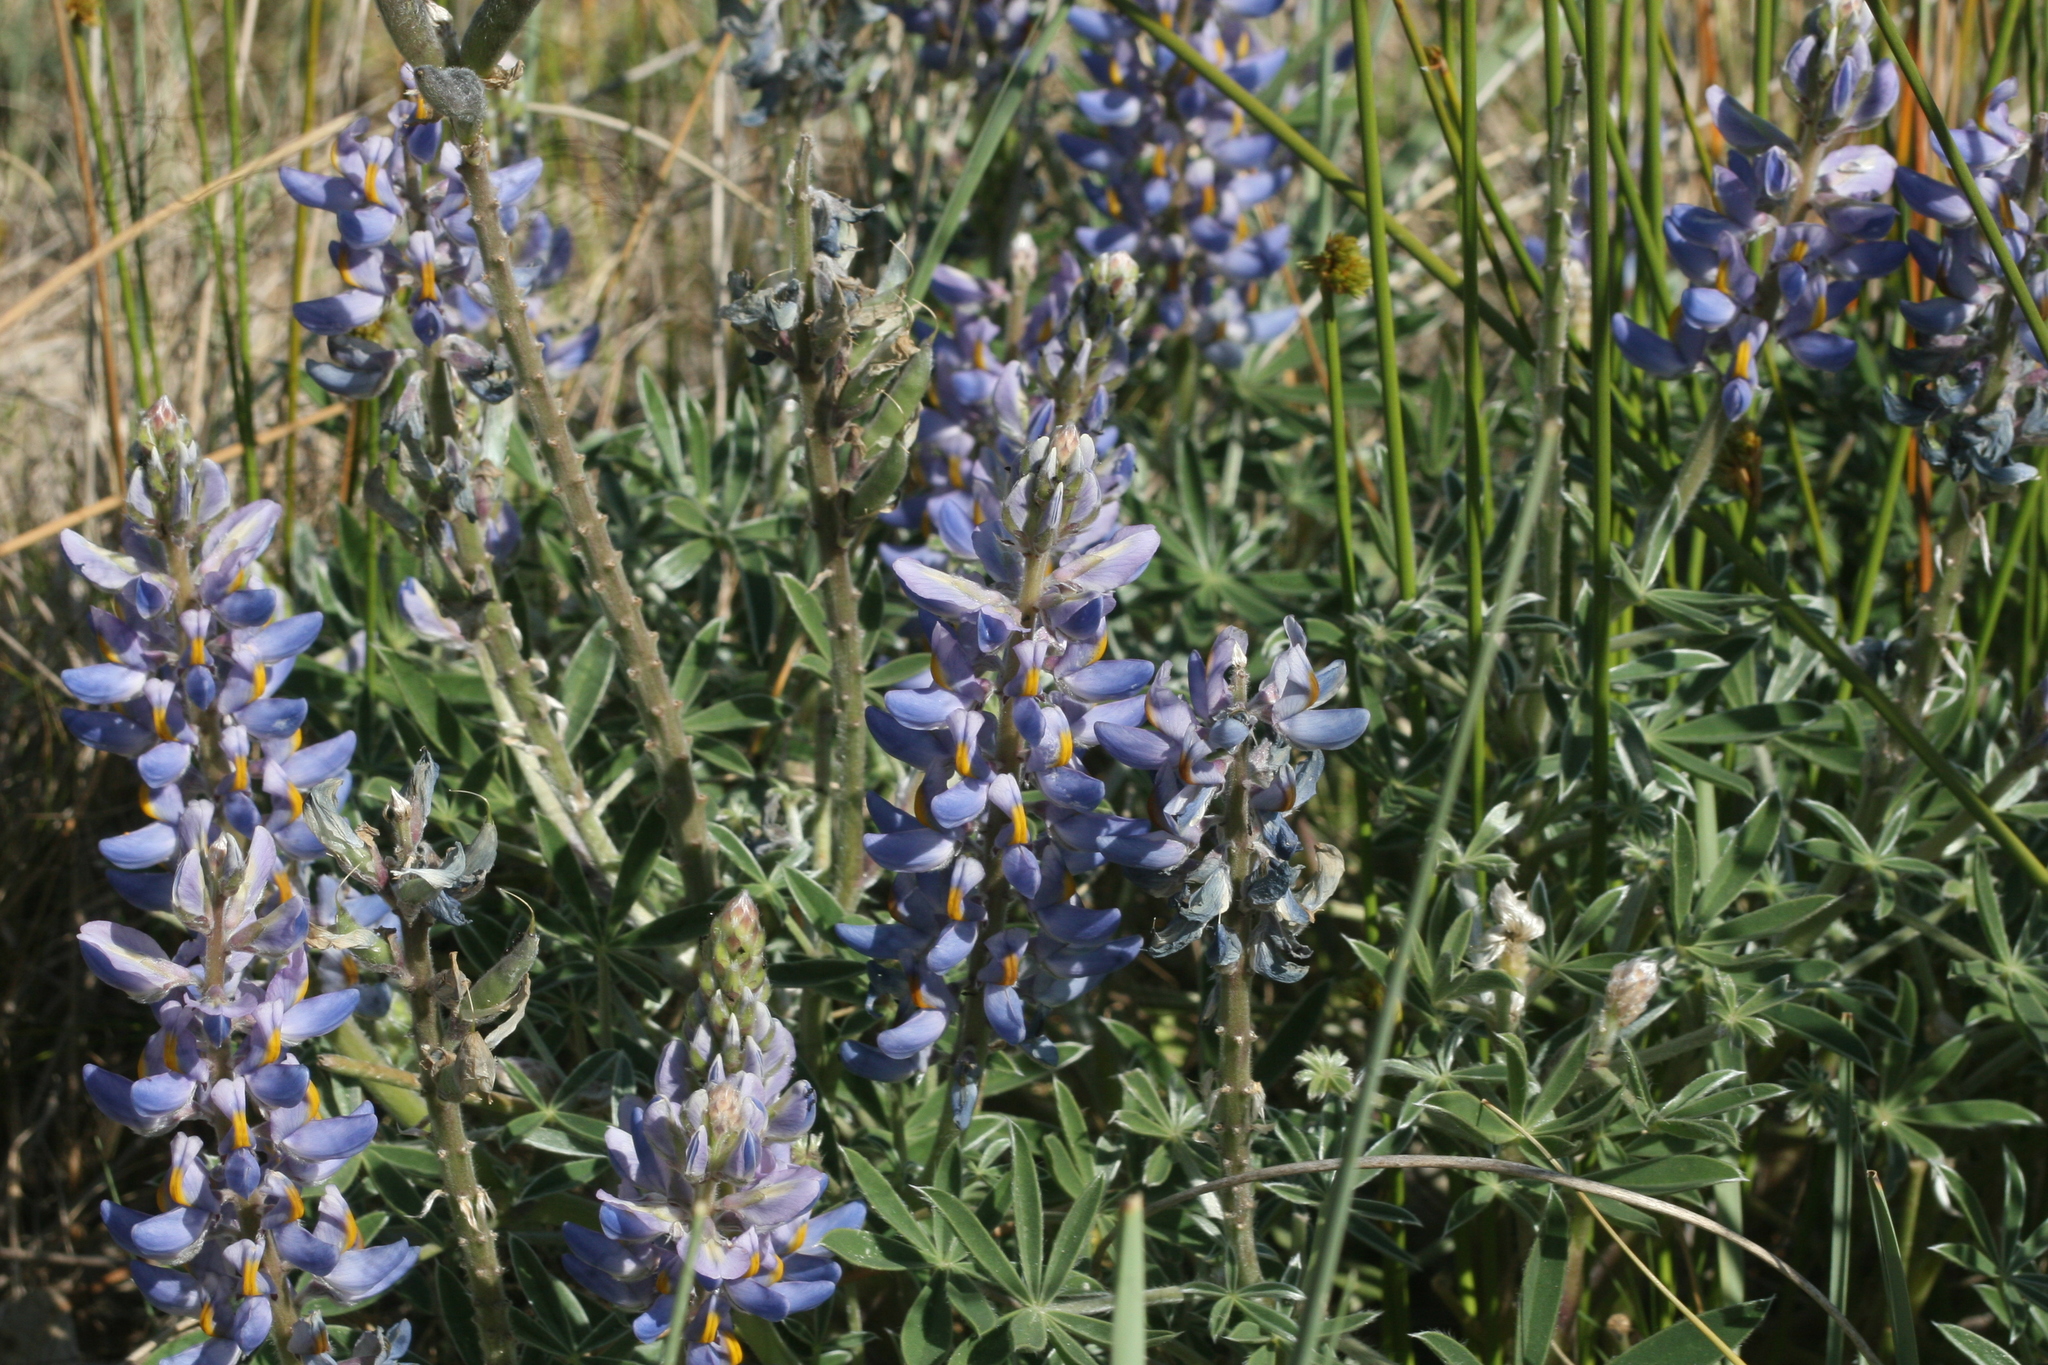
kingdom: Plantae
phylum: Tracheophyta
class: Magnoliopsida
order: Fabales
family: Fabaceae
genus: Lupinus
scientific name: Lupinus multiflorus
